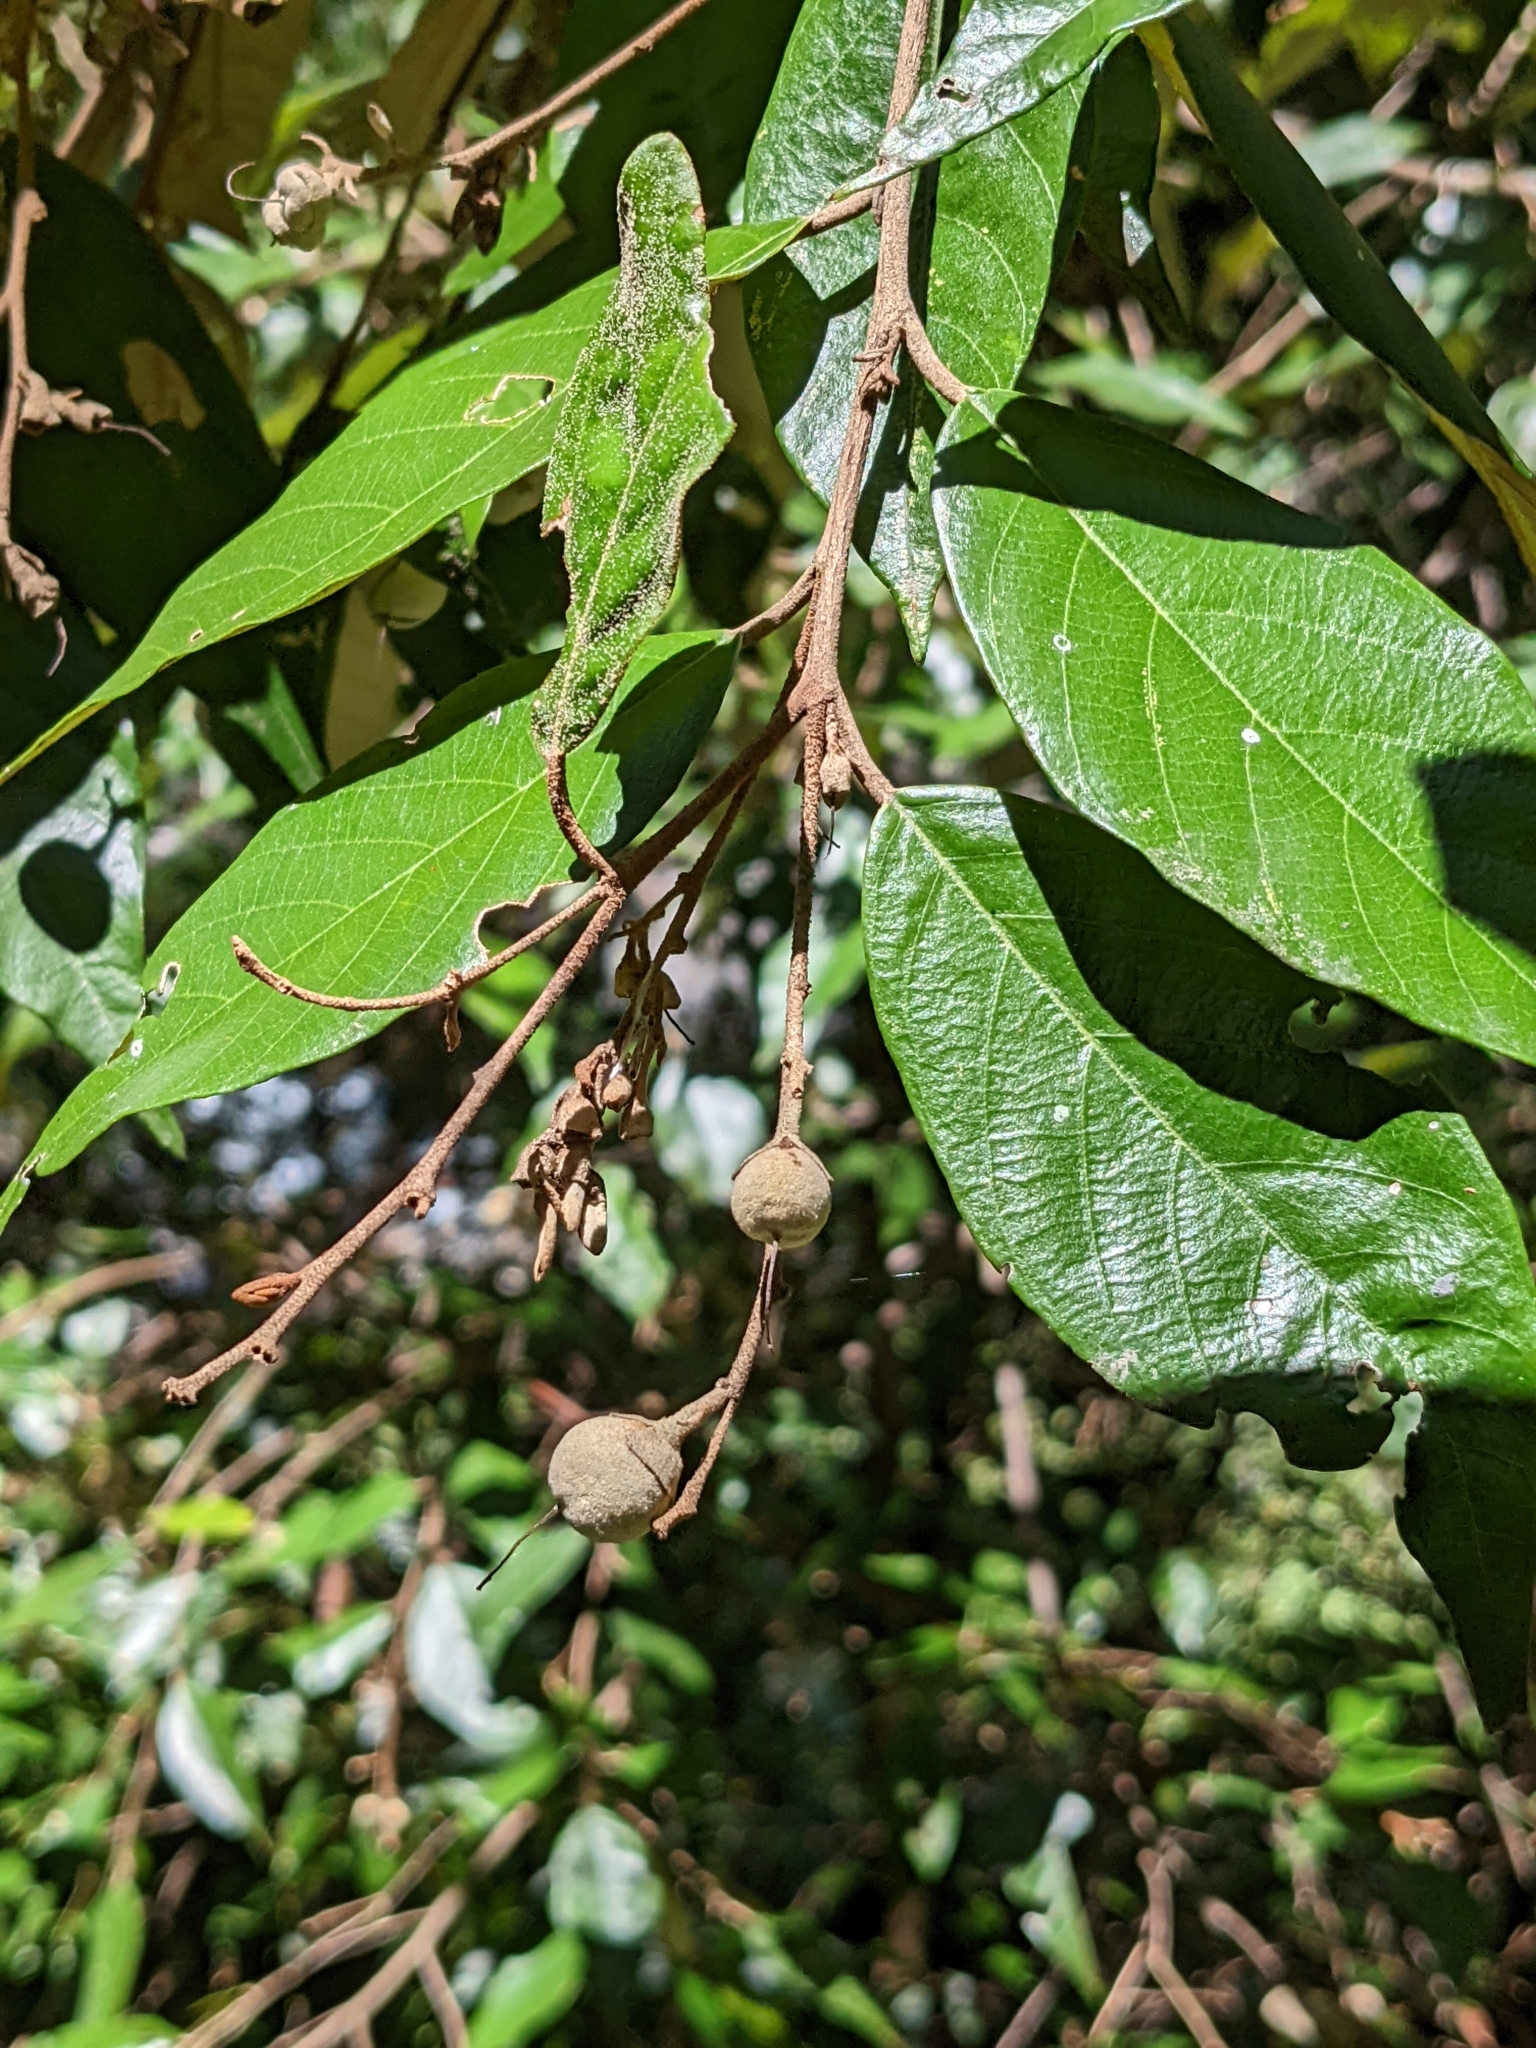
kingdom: Plantae
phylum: Tracheophyta
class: Magnoliopsida
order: Ericales
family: Styracaceae
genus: Styrax
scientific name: Styrax suberifolius
